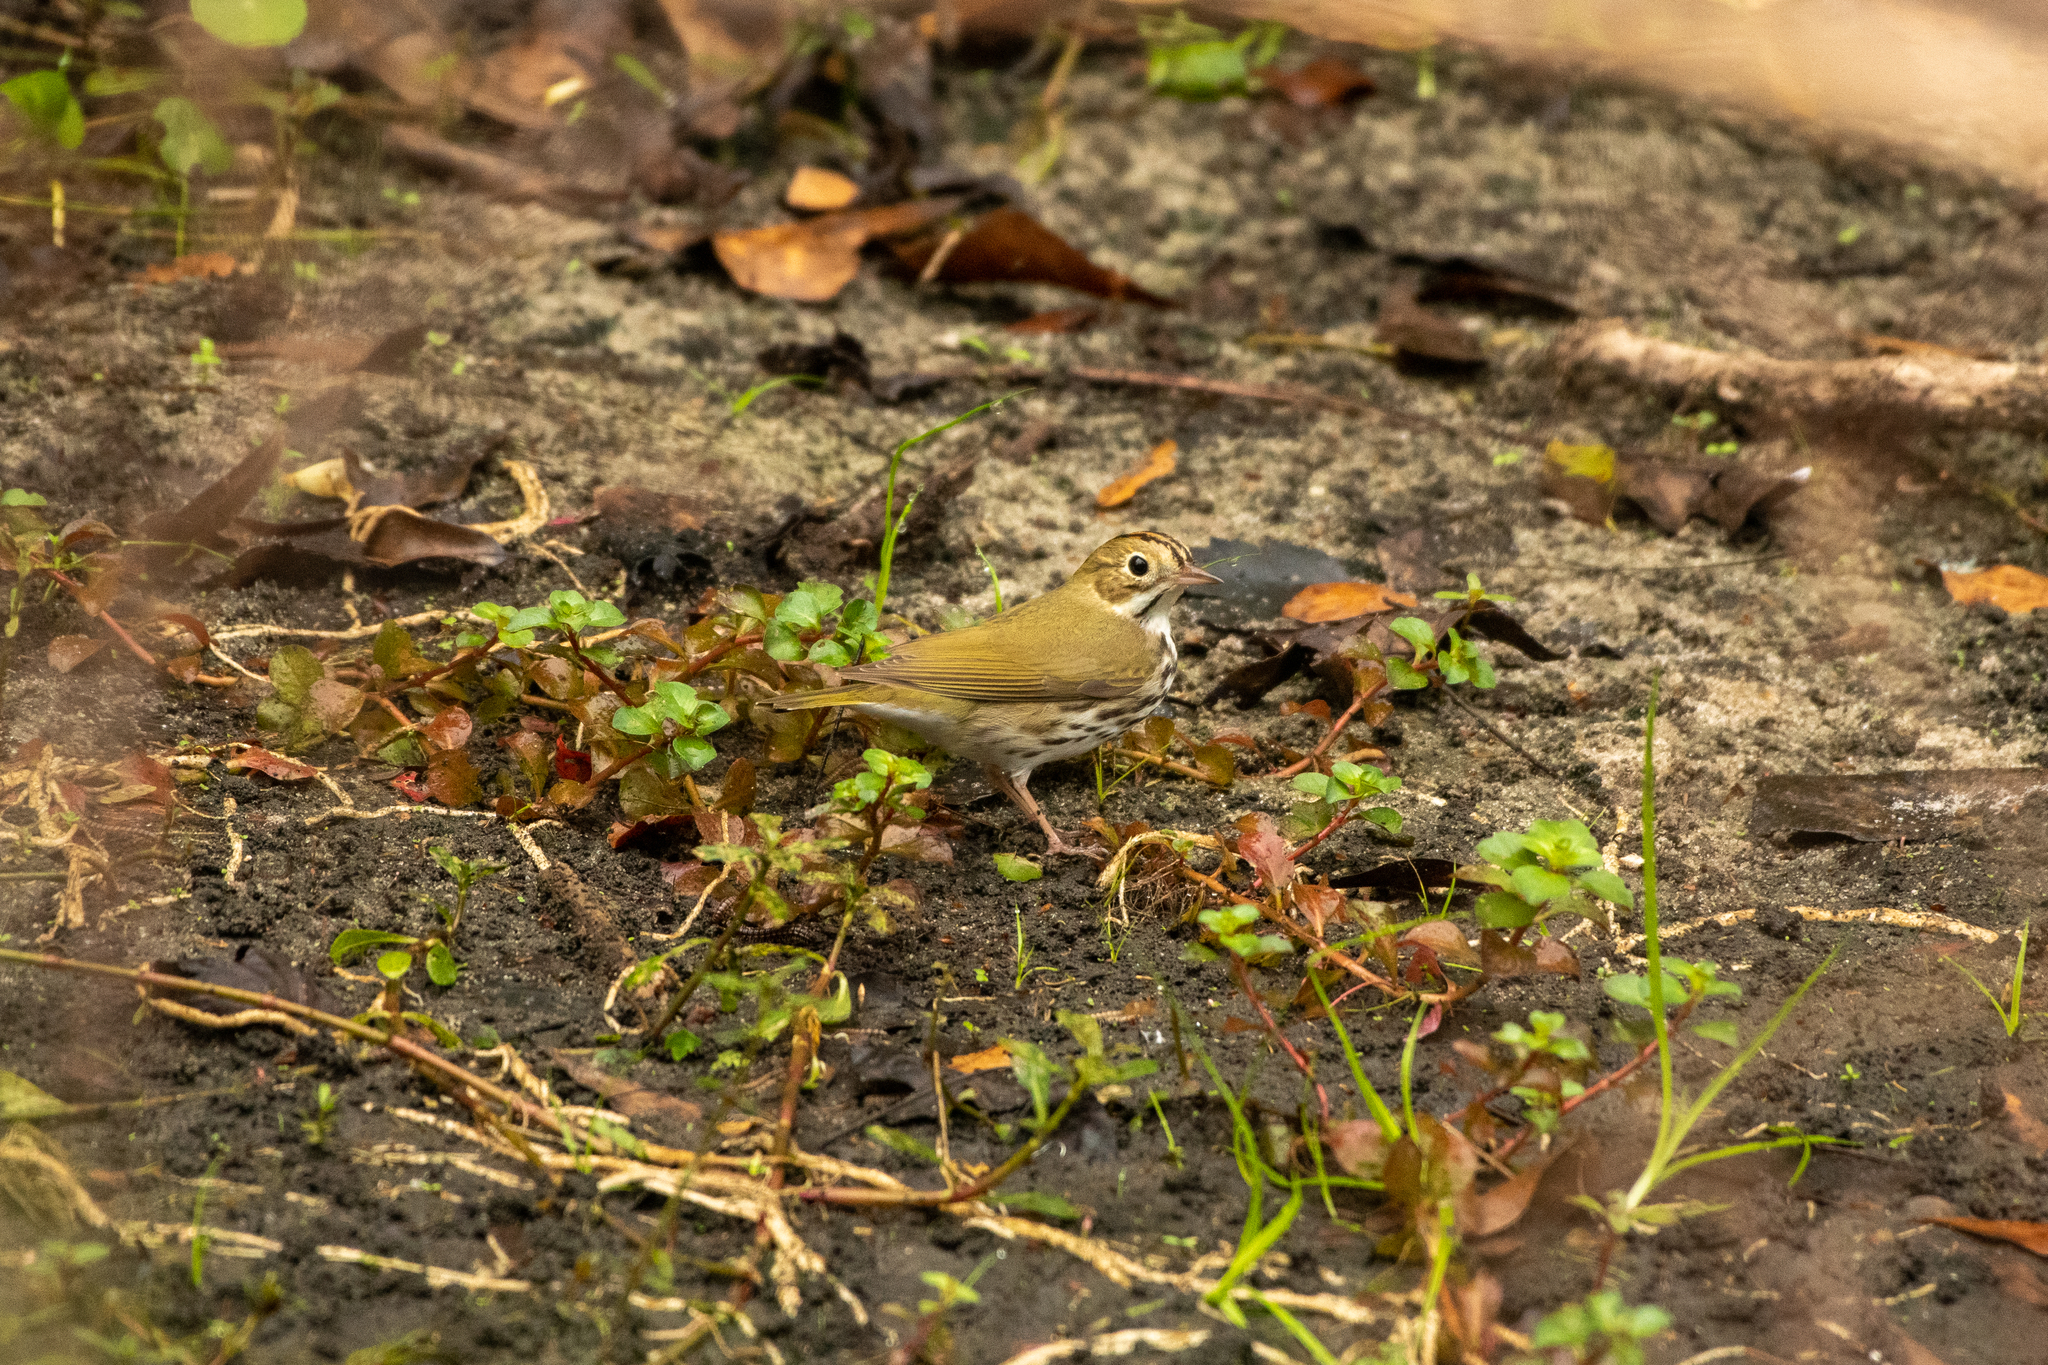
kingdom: Animalia
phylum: Chordata
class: Aves
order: Passeriformes
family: Parulidae
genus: Seiurus
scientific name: Seiurus aurocapilla
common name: Ovenbird
